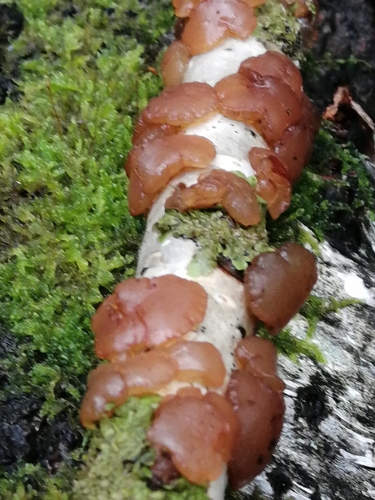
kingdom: Fungi
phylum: Basidiomycota
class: Agaricomycetes
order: Auriculariales
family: Auriculariaceae
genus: Exidia
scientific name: Exidia repanda
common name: Birch jelly
